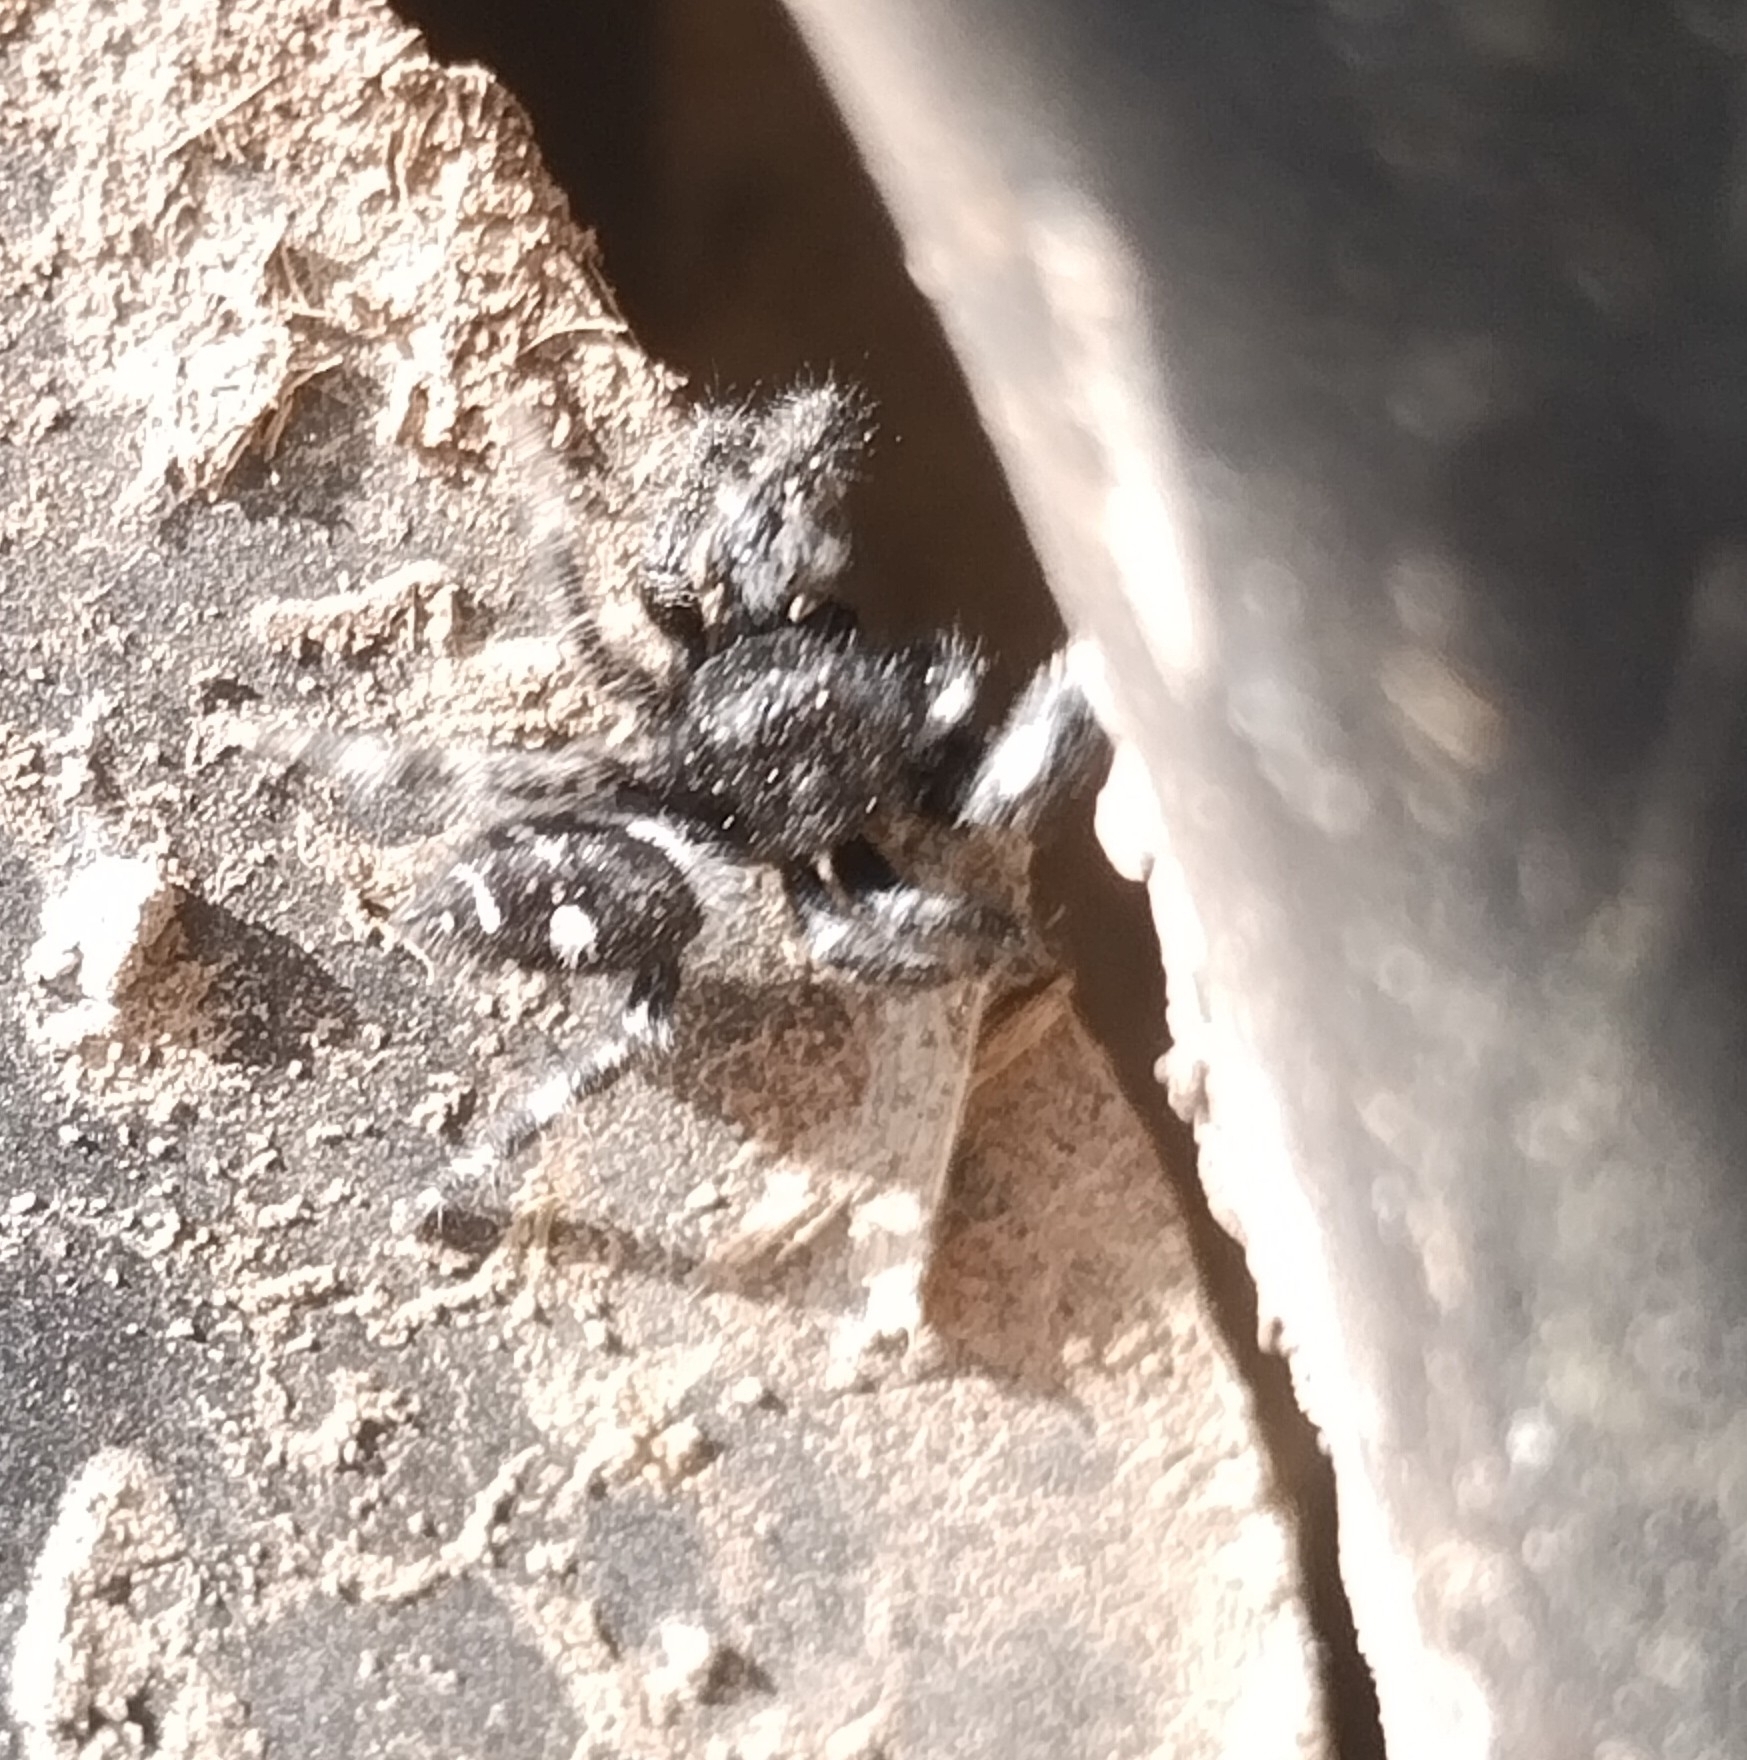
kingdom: Animalia
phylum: Arthropoda
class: Arachnida
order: Araneae
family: Salticidae
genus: Phidippus
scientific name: Phidippus audax
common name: Bold jumper
